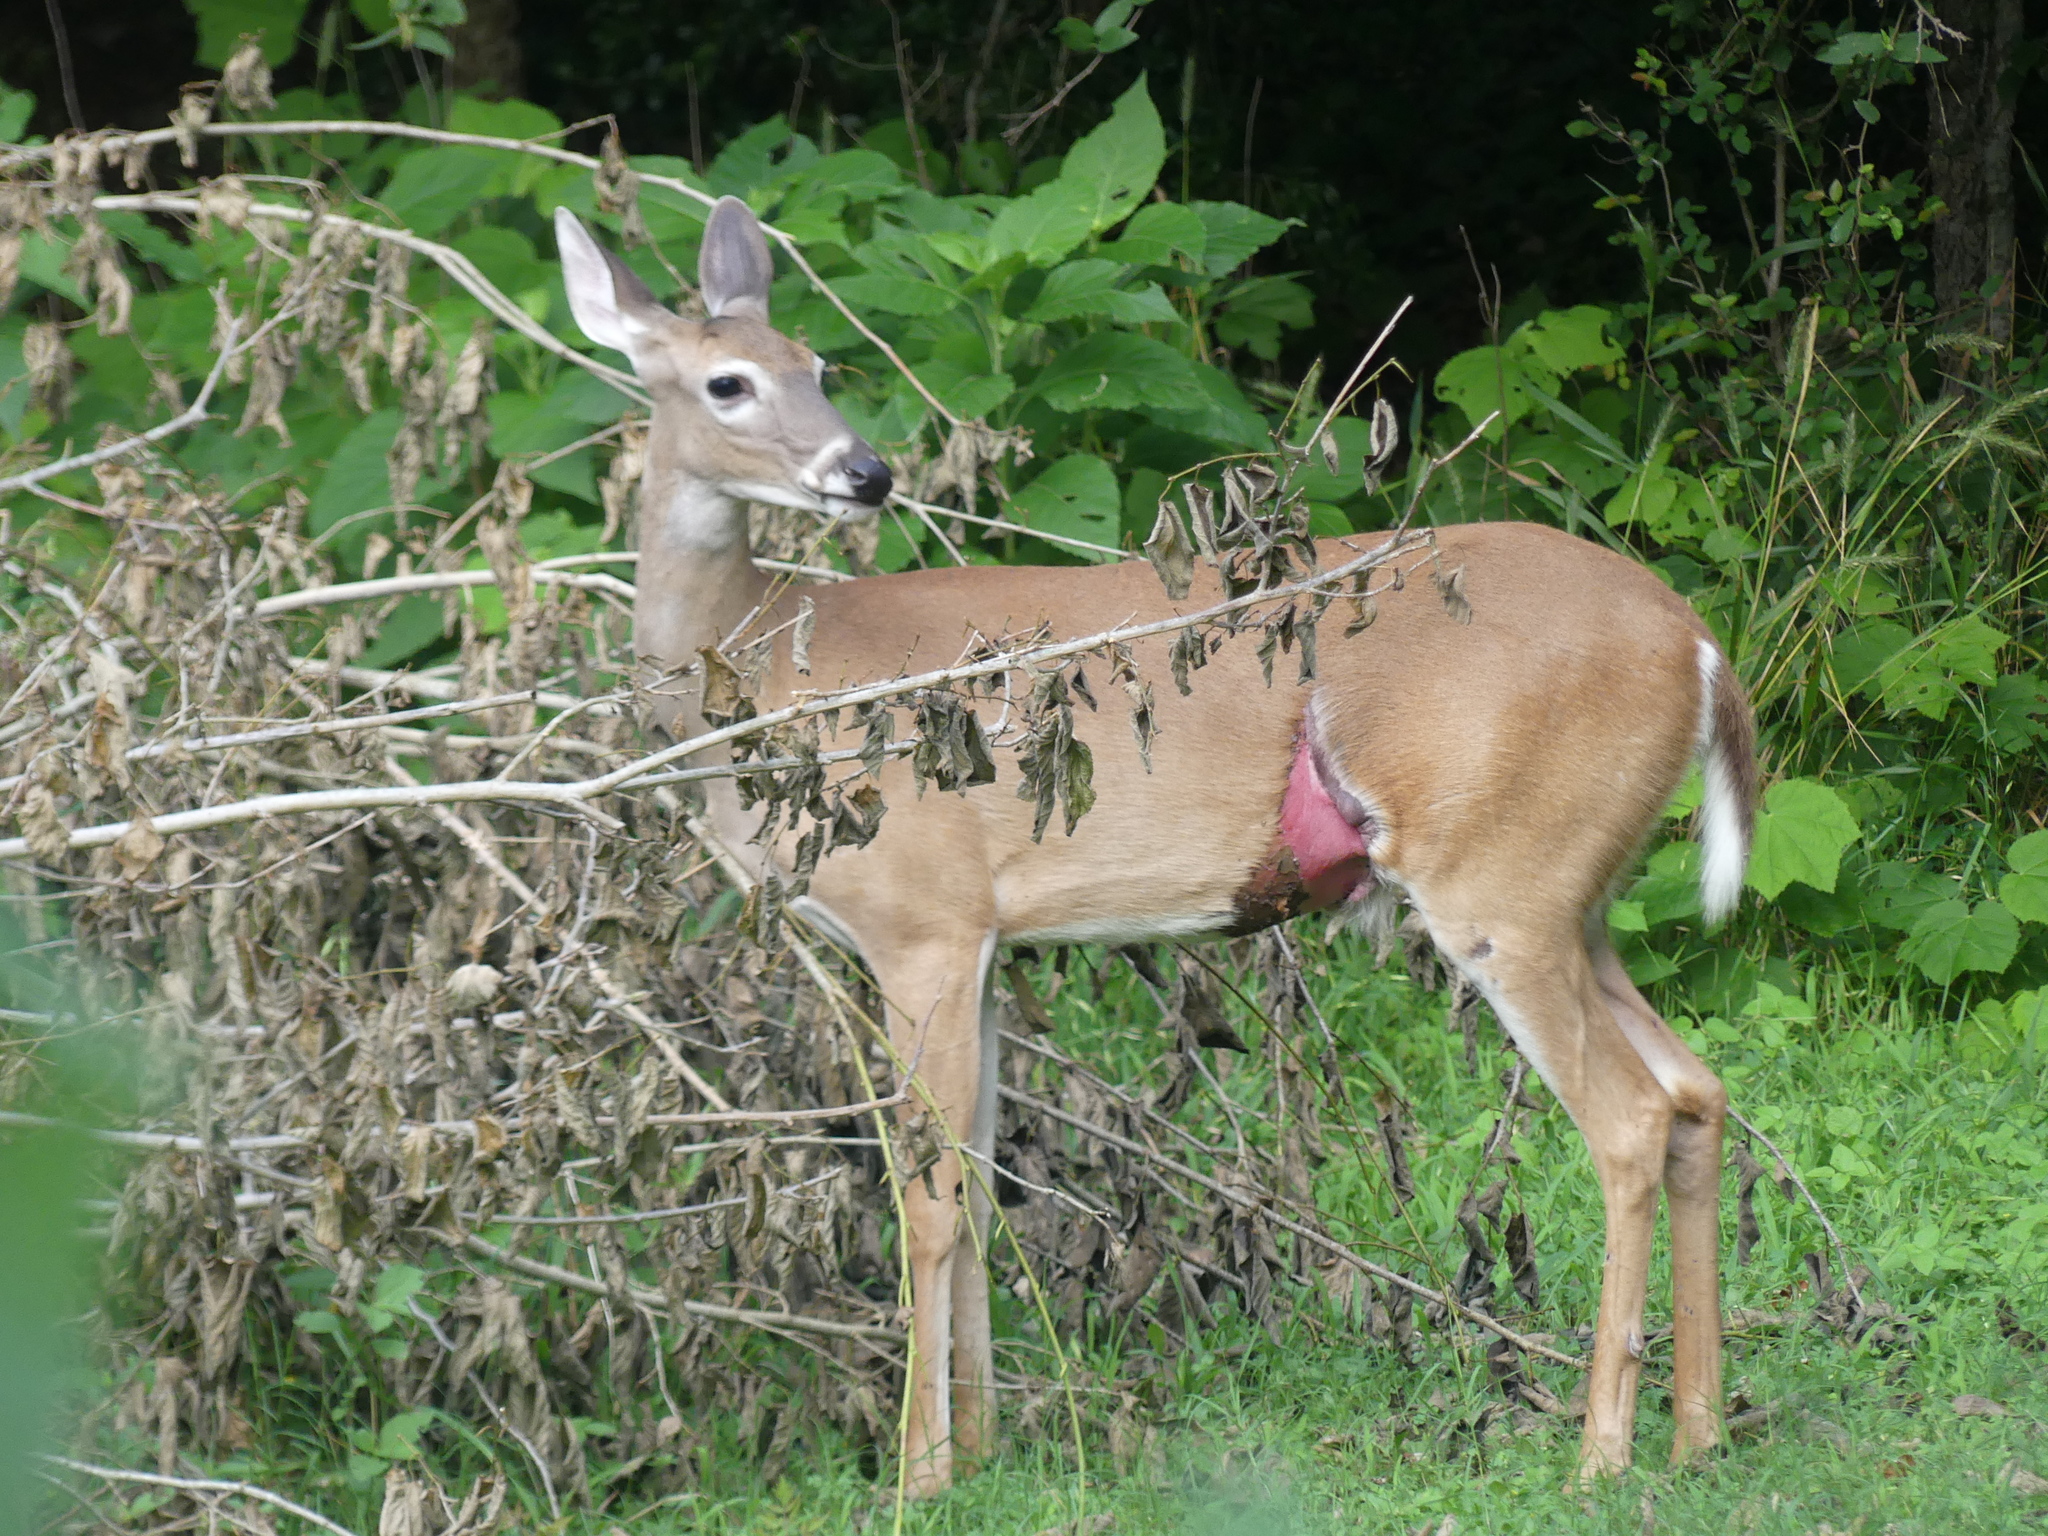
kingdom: Animalia
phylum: Chordata
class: Mammalia
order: Artiodactyla
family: Cervidae
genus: Odocoileus
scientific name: Odocoileus virginianus
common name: White-tailed deer
